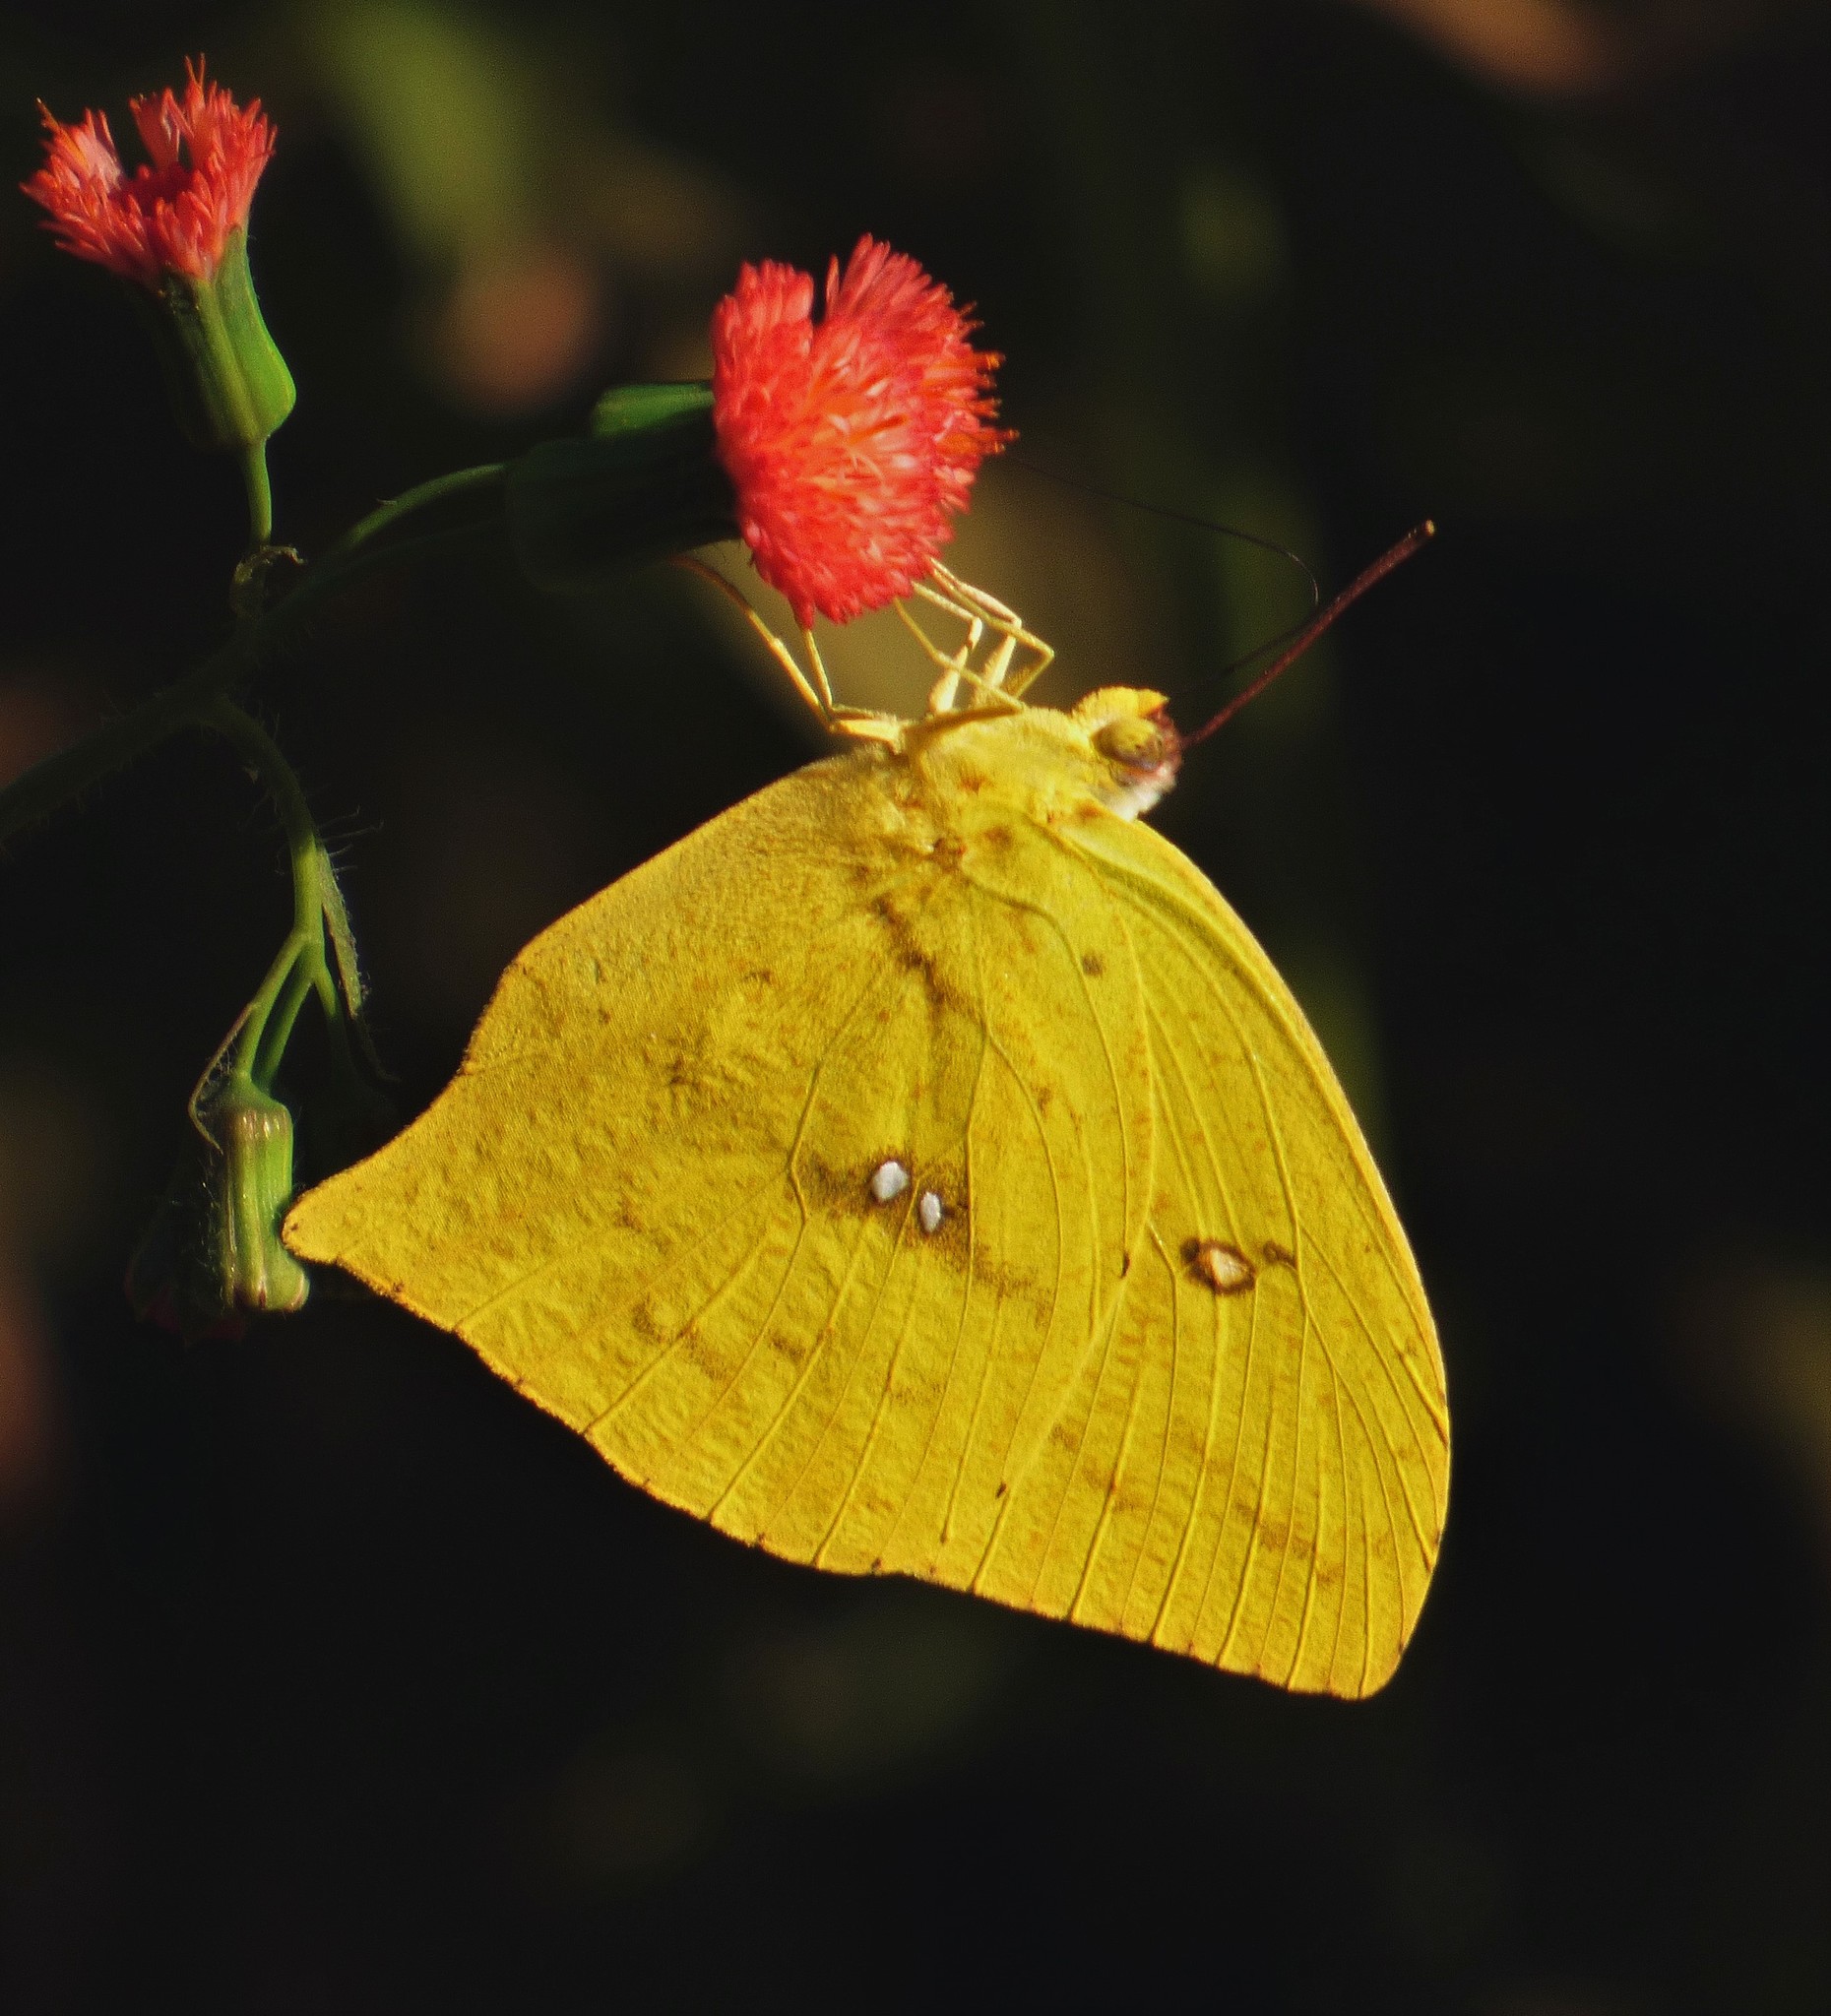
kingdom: Animalia
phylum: Arthropoda
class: Insecta
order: Lepidoptera
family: Pieridae
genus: Phoebis
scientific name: Phoebis neocypris
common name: Tailed sulphur
